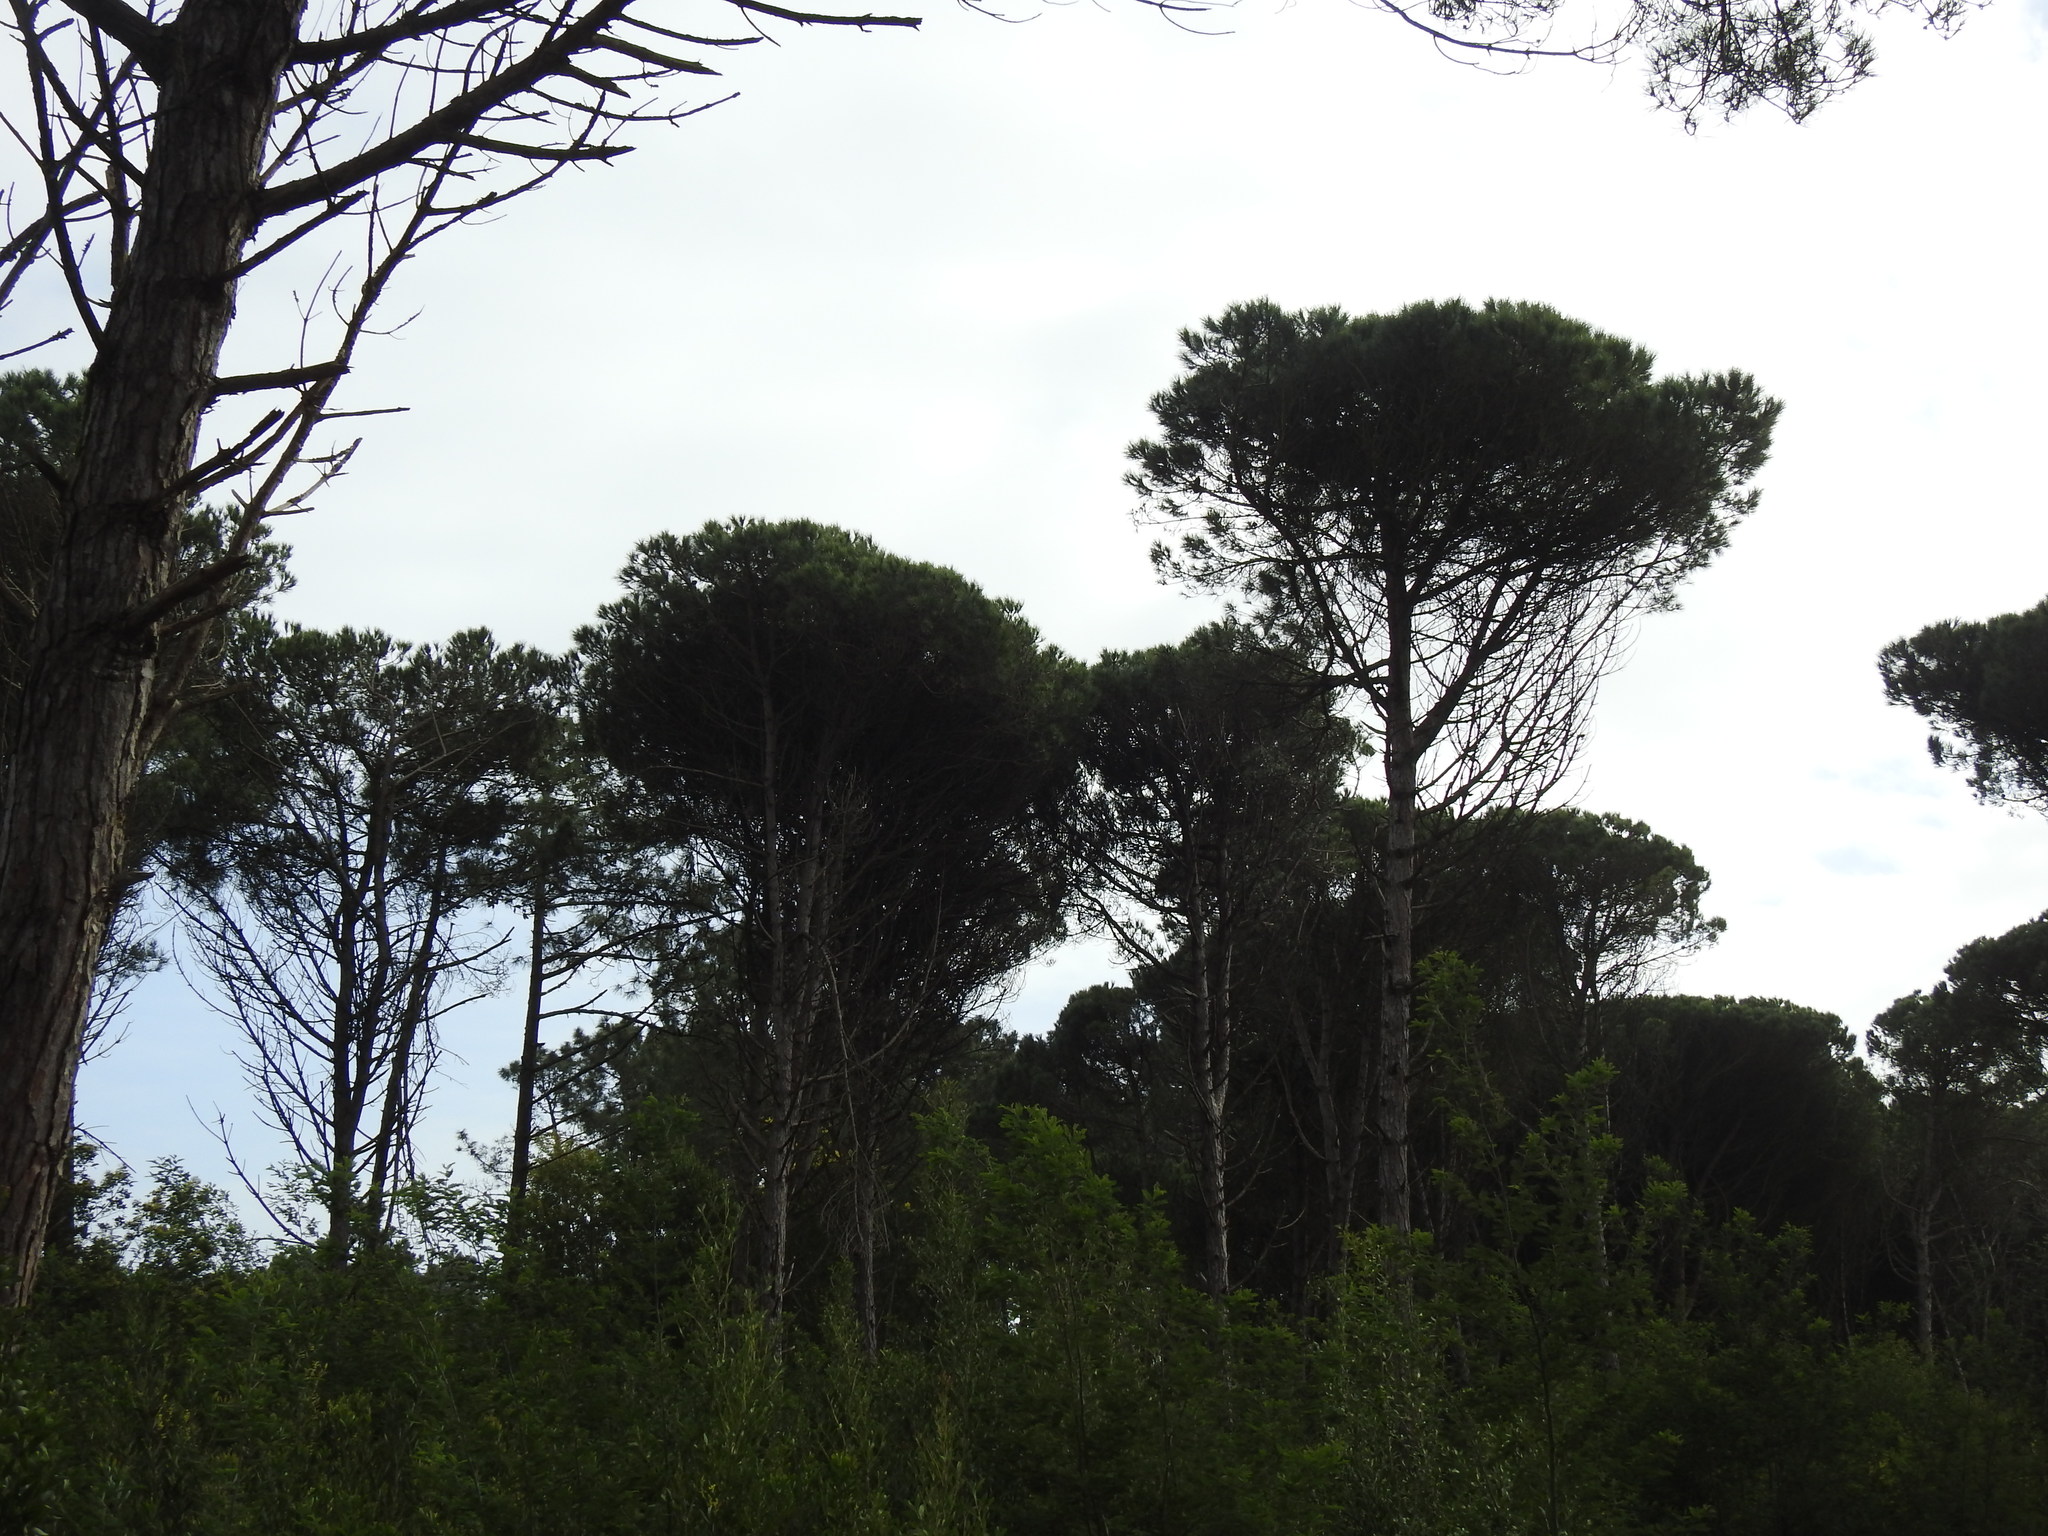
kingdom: Plantae
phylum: Tracheophyta
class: Pinopsida
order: Pinales
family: Pinaceae
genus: Pinus
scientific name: Pinus pinea
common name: Italian stone pine
